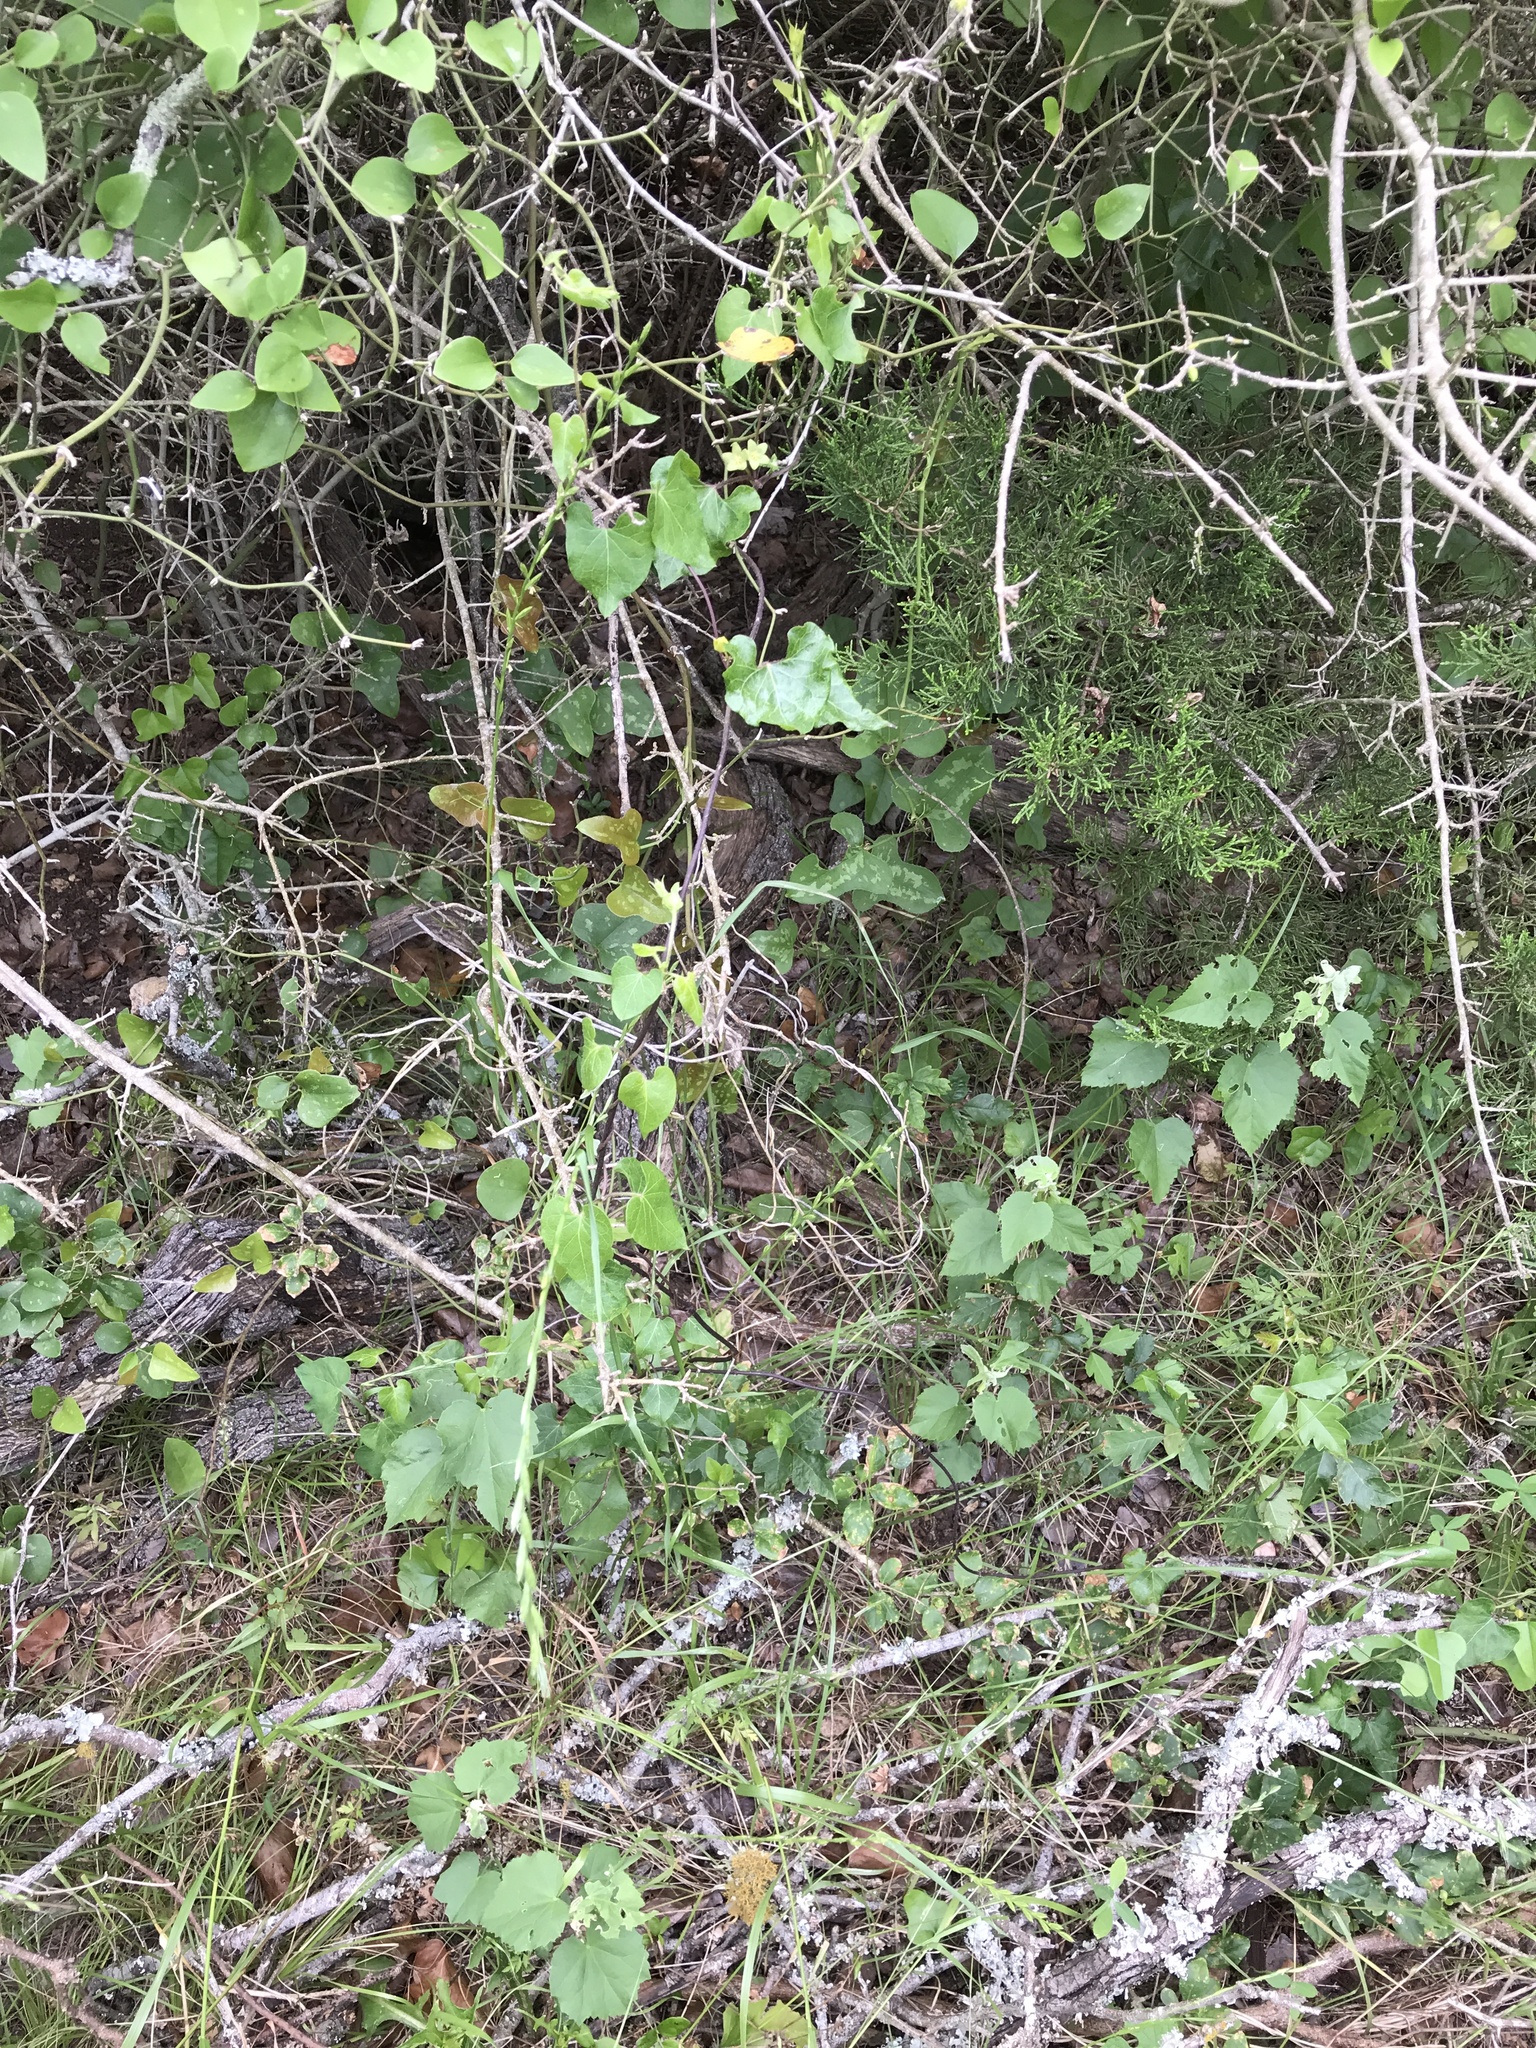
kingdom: Plantae
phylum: Tracheophyta
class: Magnoliopsida
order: Gentianales
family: Apocynaceae
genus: Matelea
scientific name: Matelea edwardsensis
